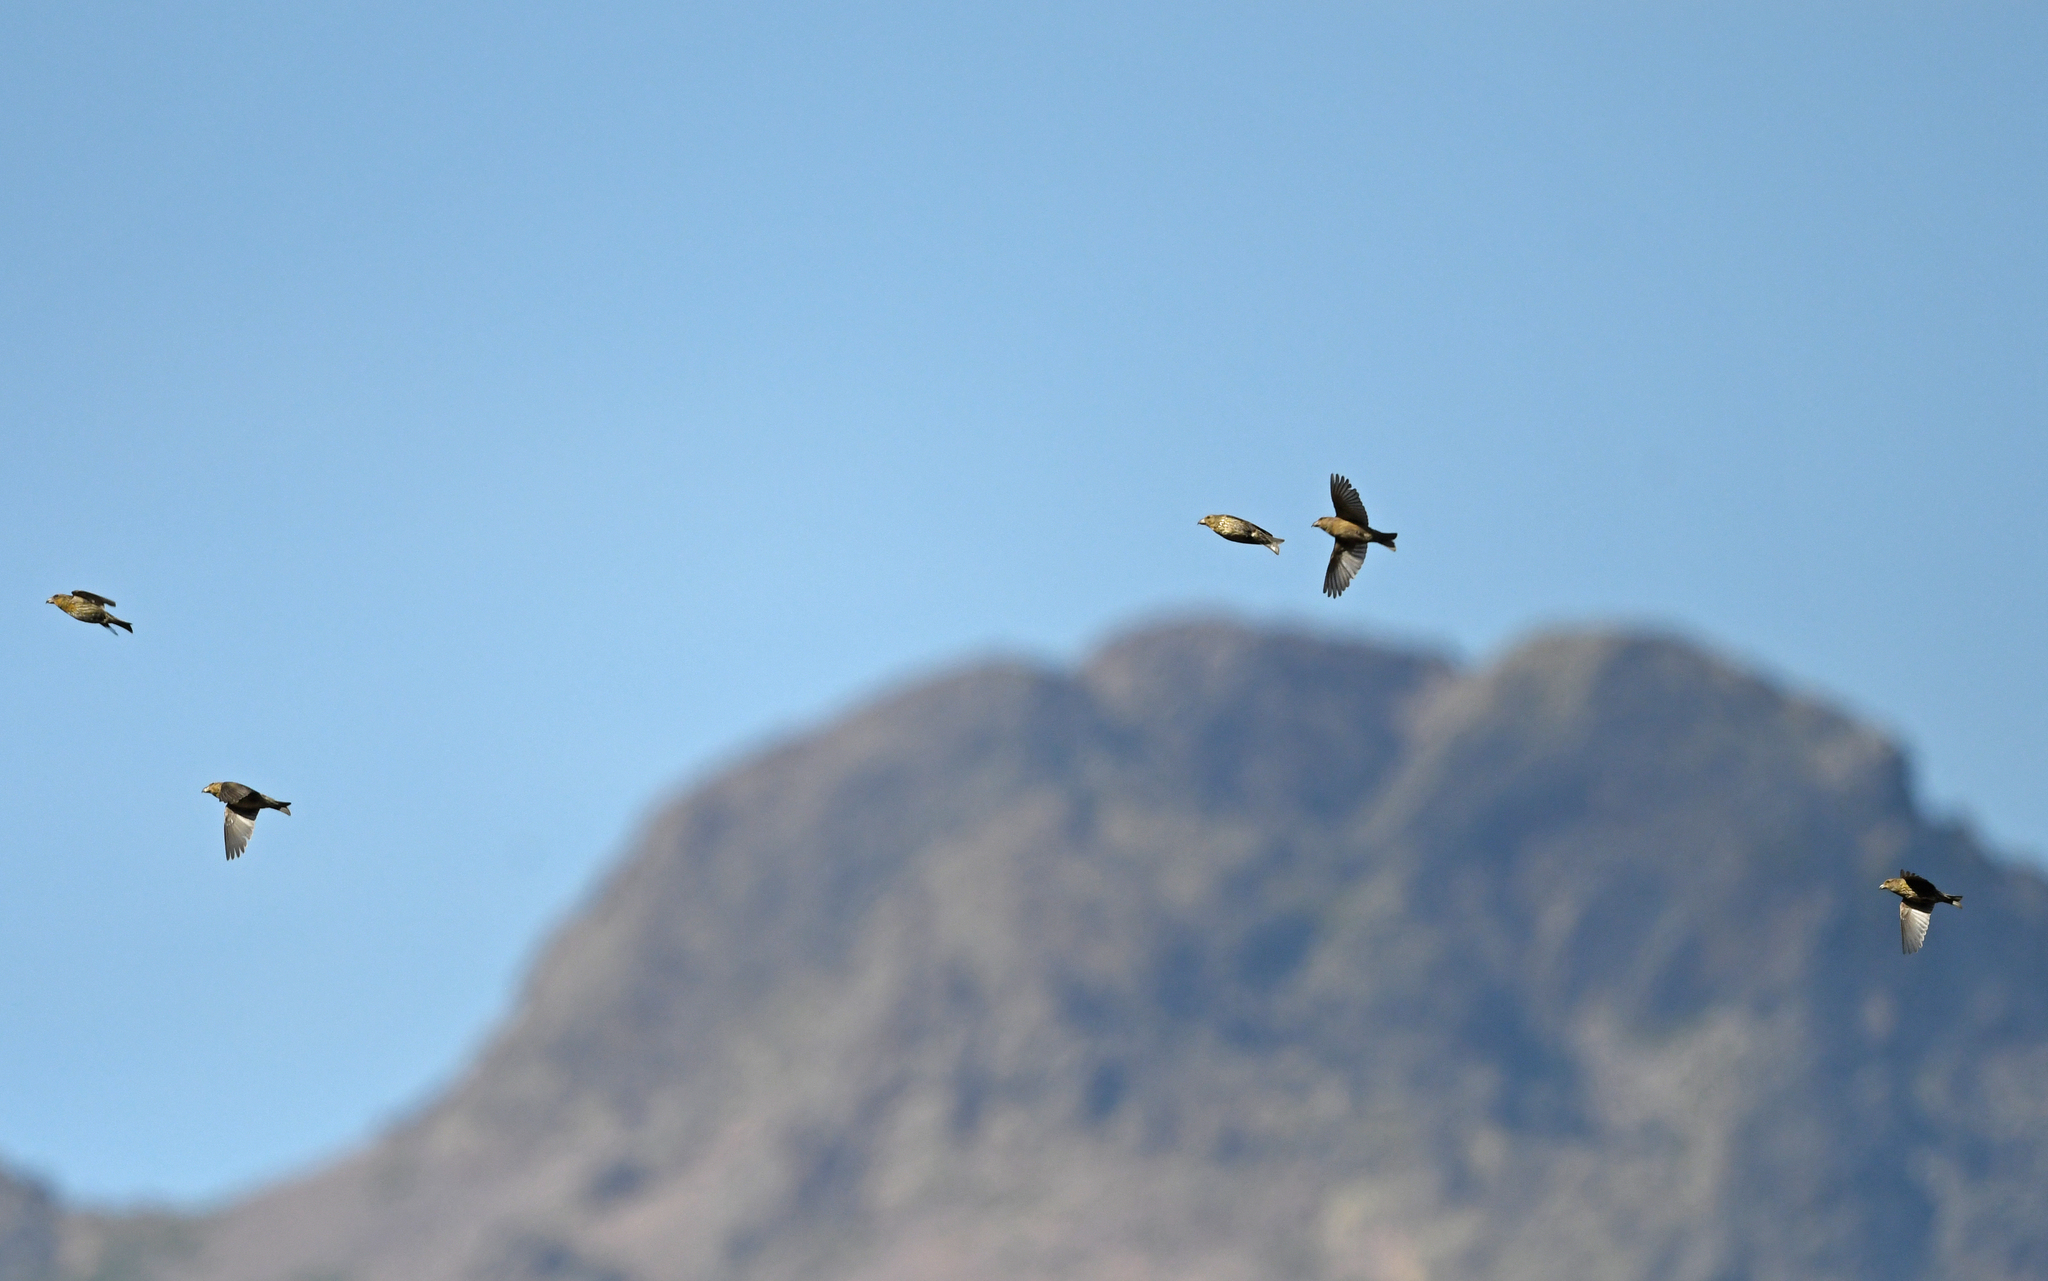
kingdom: Animalia
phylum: Chordata
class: Aves
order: Passeriformes
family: Fringillidae
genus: Loxia
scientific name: Loxia curvirostra
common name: Red crossbill
